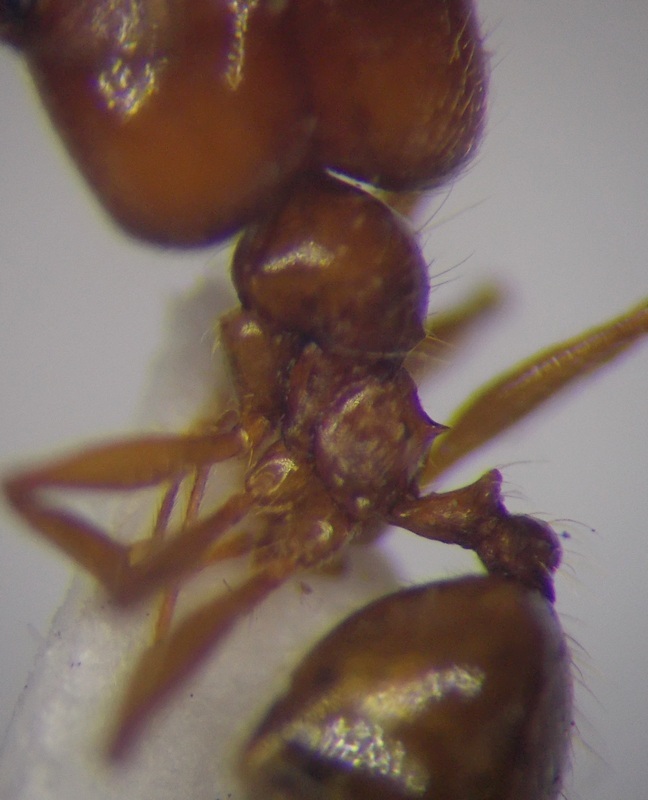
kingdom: Animalia
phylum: Arthropoda
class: Insecta
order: Hymenoptera
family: Formicidae
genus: Pheidole
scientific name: Pheidole pallidula
